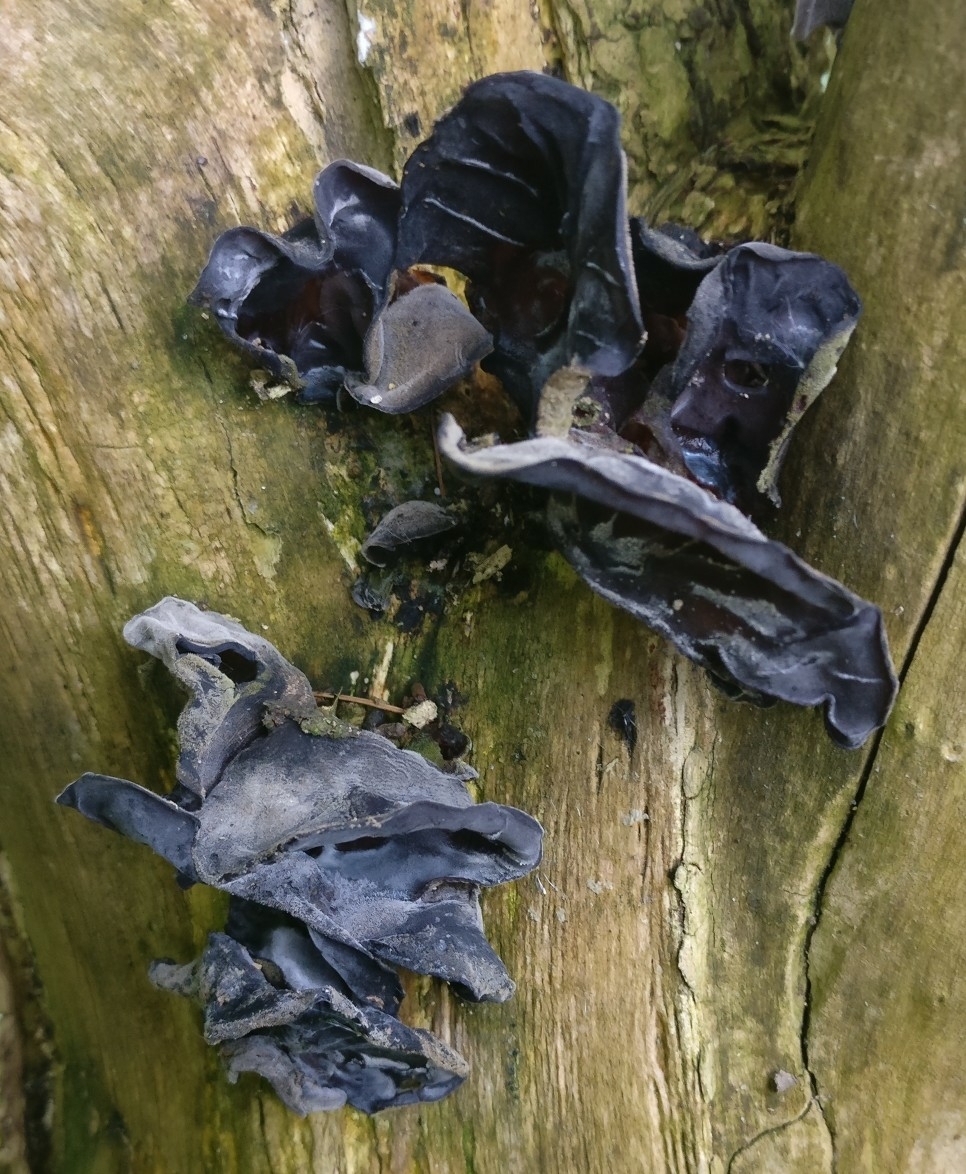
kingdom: Fungi
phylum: Basidiomycota
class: Agaricomycetes
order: Auriculariales
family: Auriculariaceae
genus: Auricularia
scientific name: Auricularia auricula-judae
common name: Jelly ear
